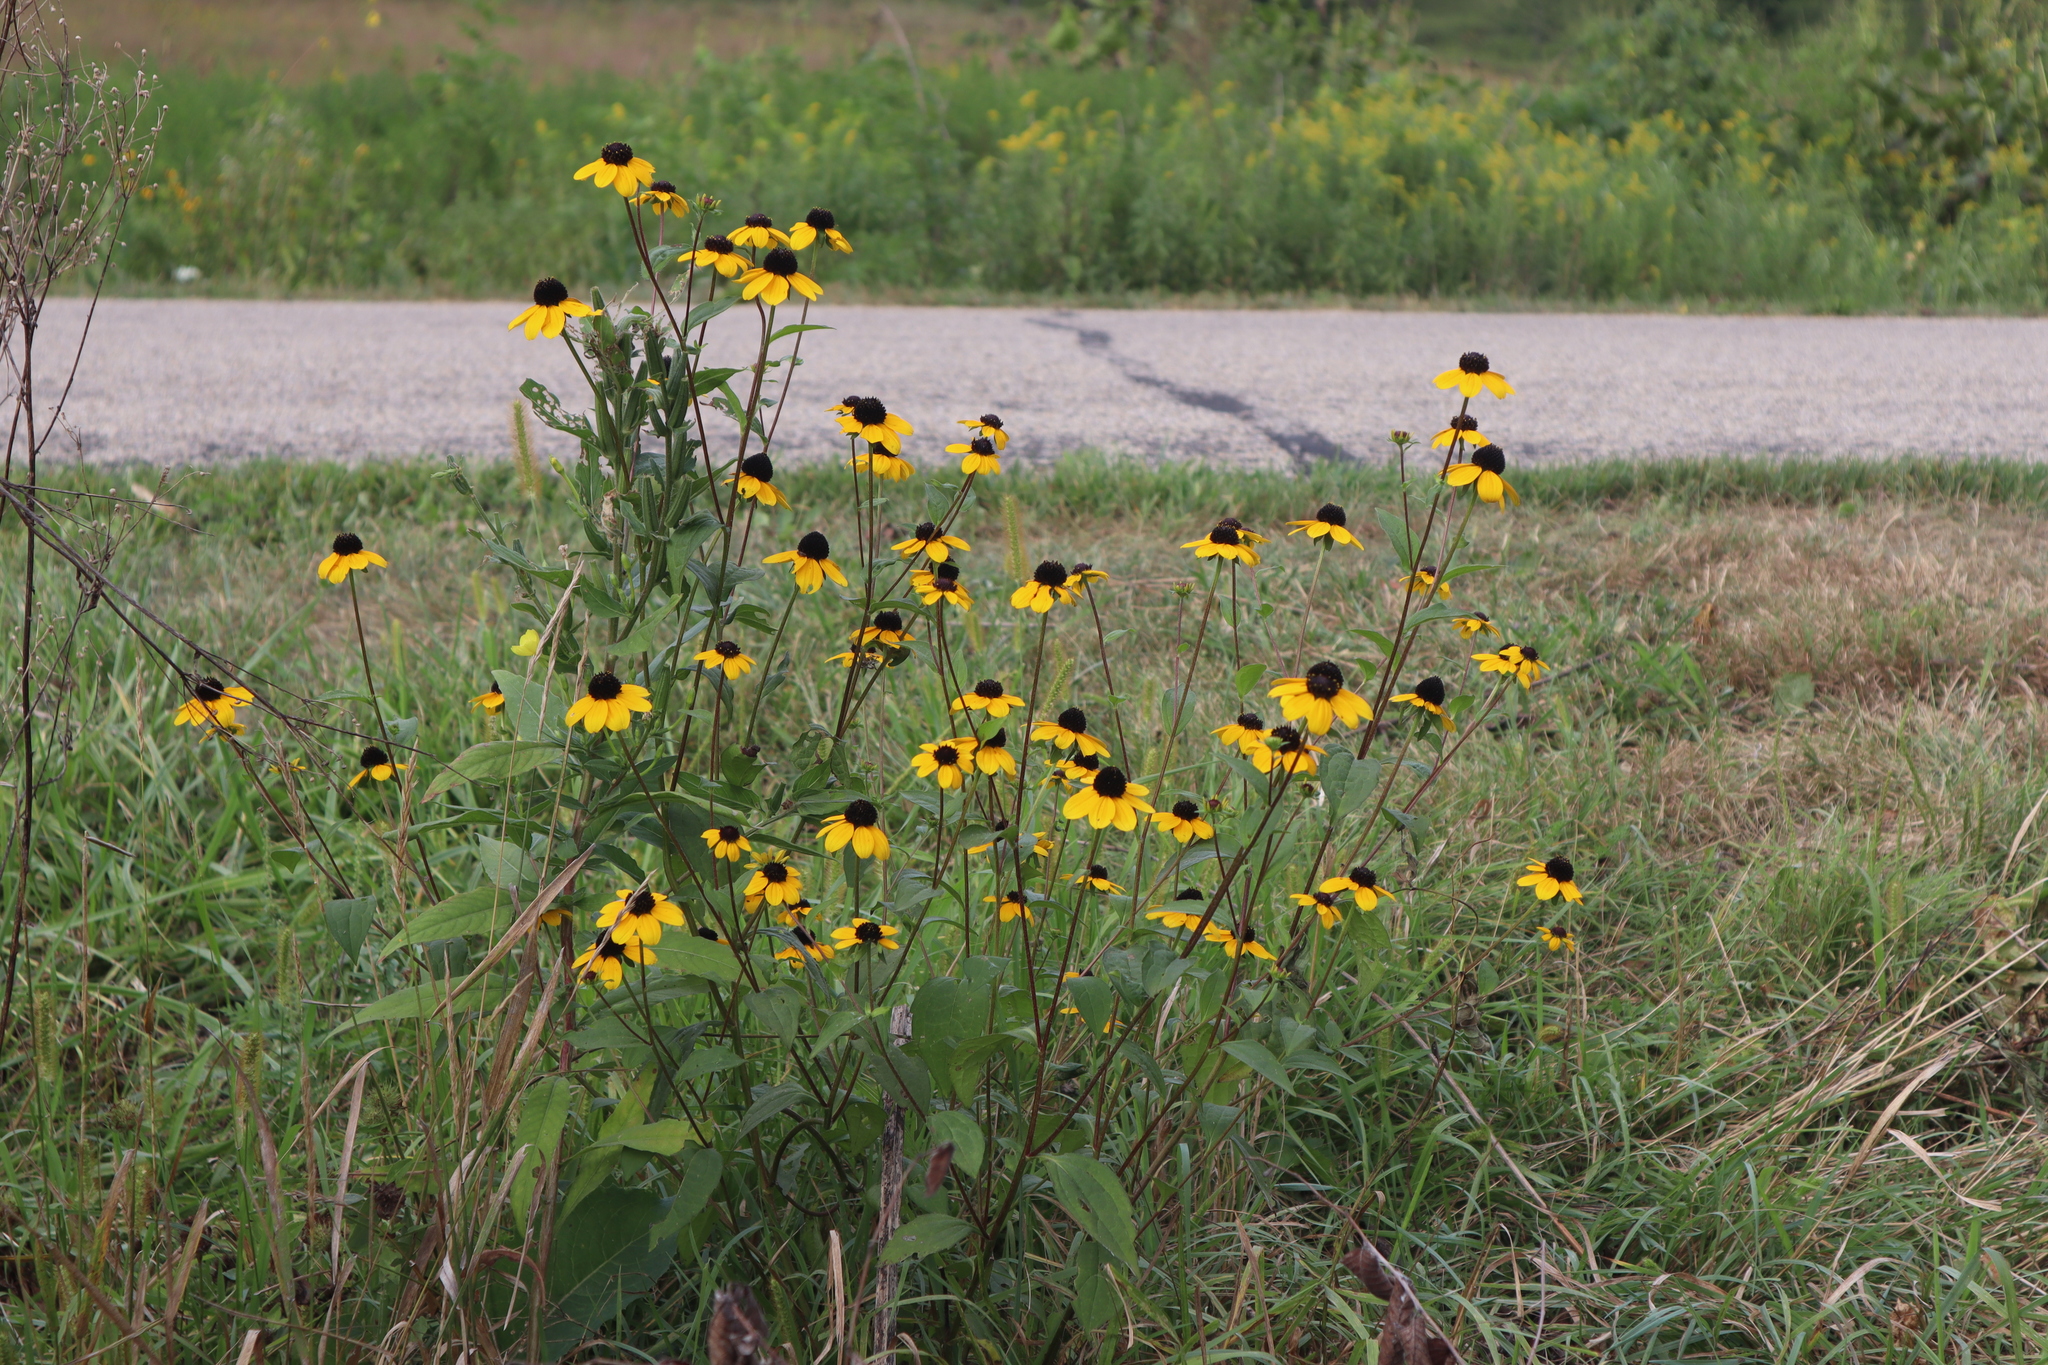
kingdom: Plantae
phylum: Tracheophyta
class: Magnoliopsida
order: Asterales
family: Asteraceae
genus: Rudbeckia
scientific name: Rudbeckia triloba
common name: Thin-leaved coneflower
